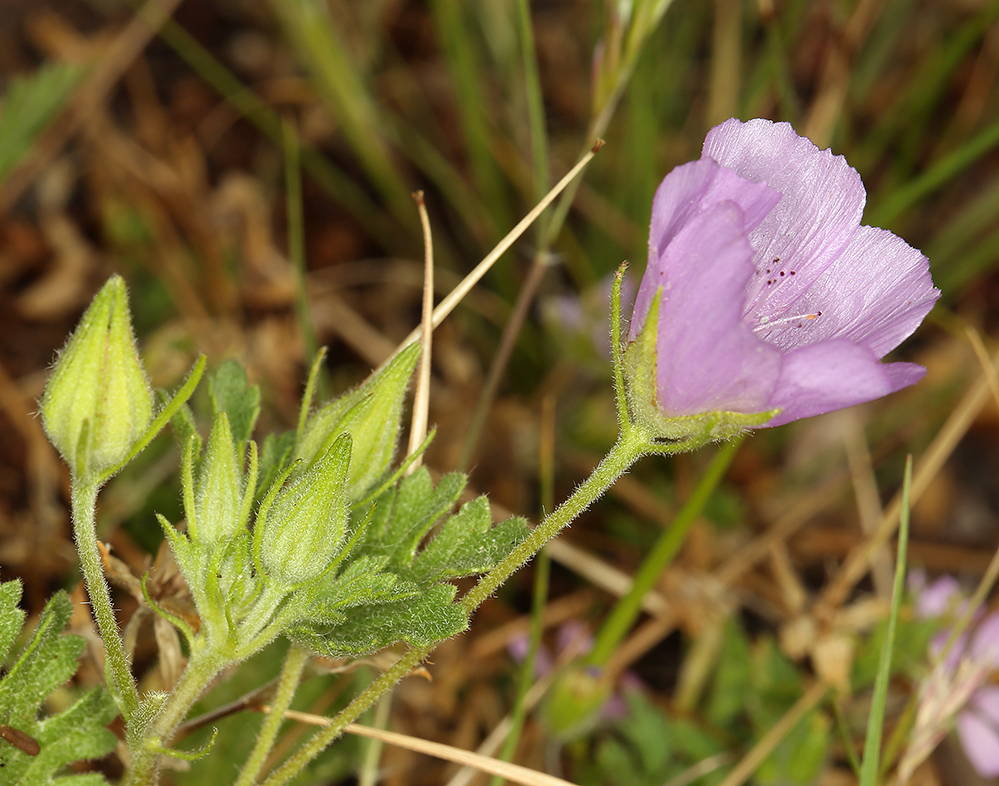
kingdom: Plantae
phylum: Tracheophyta
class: Magnoliopsida
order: Malvales
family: Malvaceae
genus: Eremalche
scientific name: Eremalche parryi
